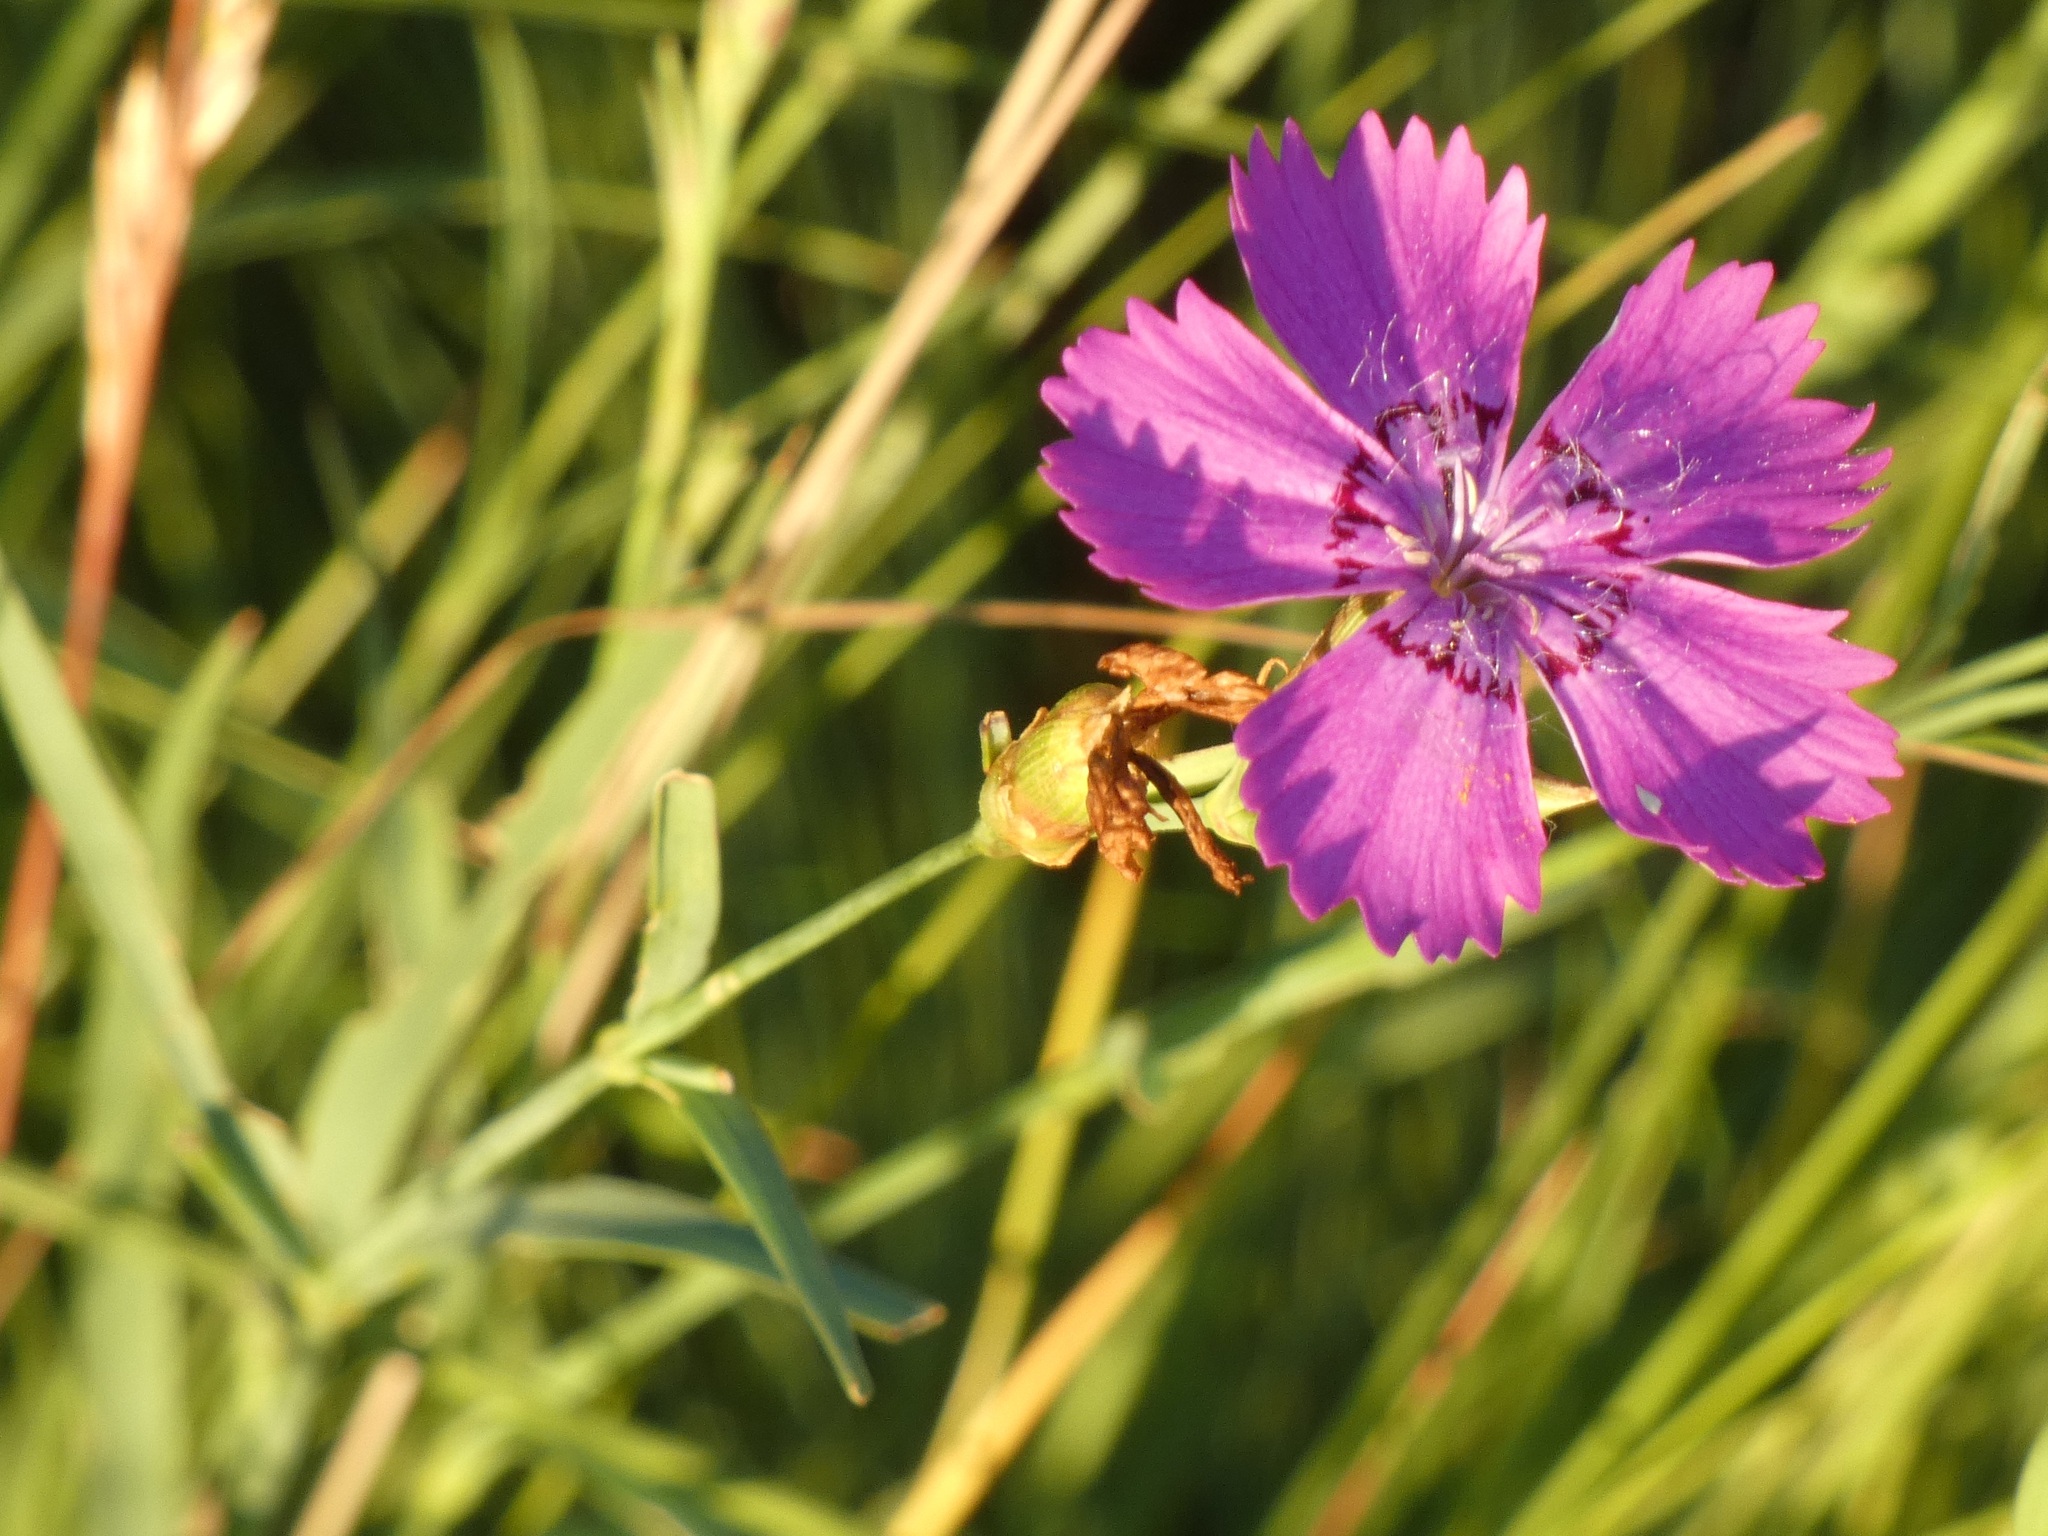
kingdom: Plantae
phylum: Tracheophyta
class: Magnoliopsida
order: Caryophyllales
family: Caryophyllaceae
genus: Dianthus
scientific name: Dianthus chinensis
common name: Rainbow pink
